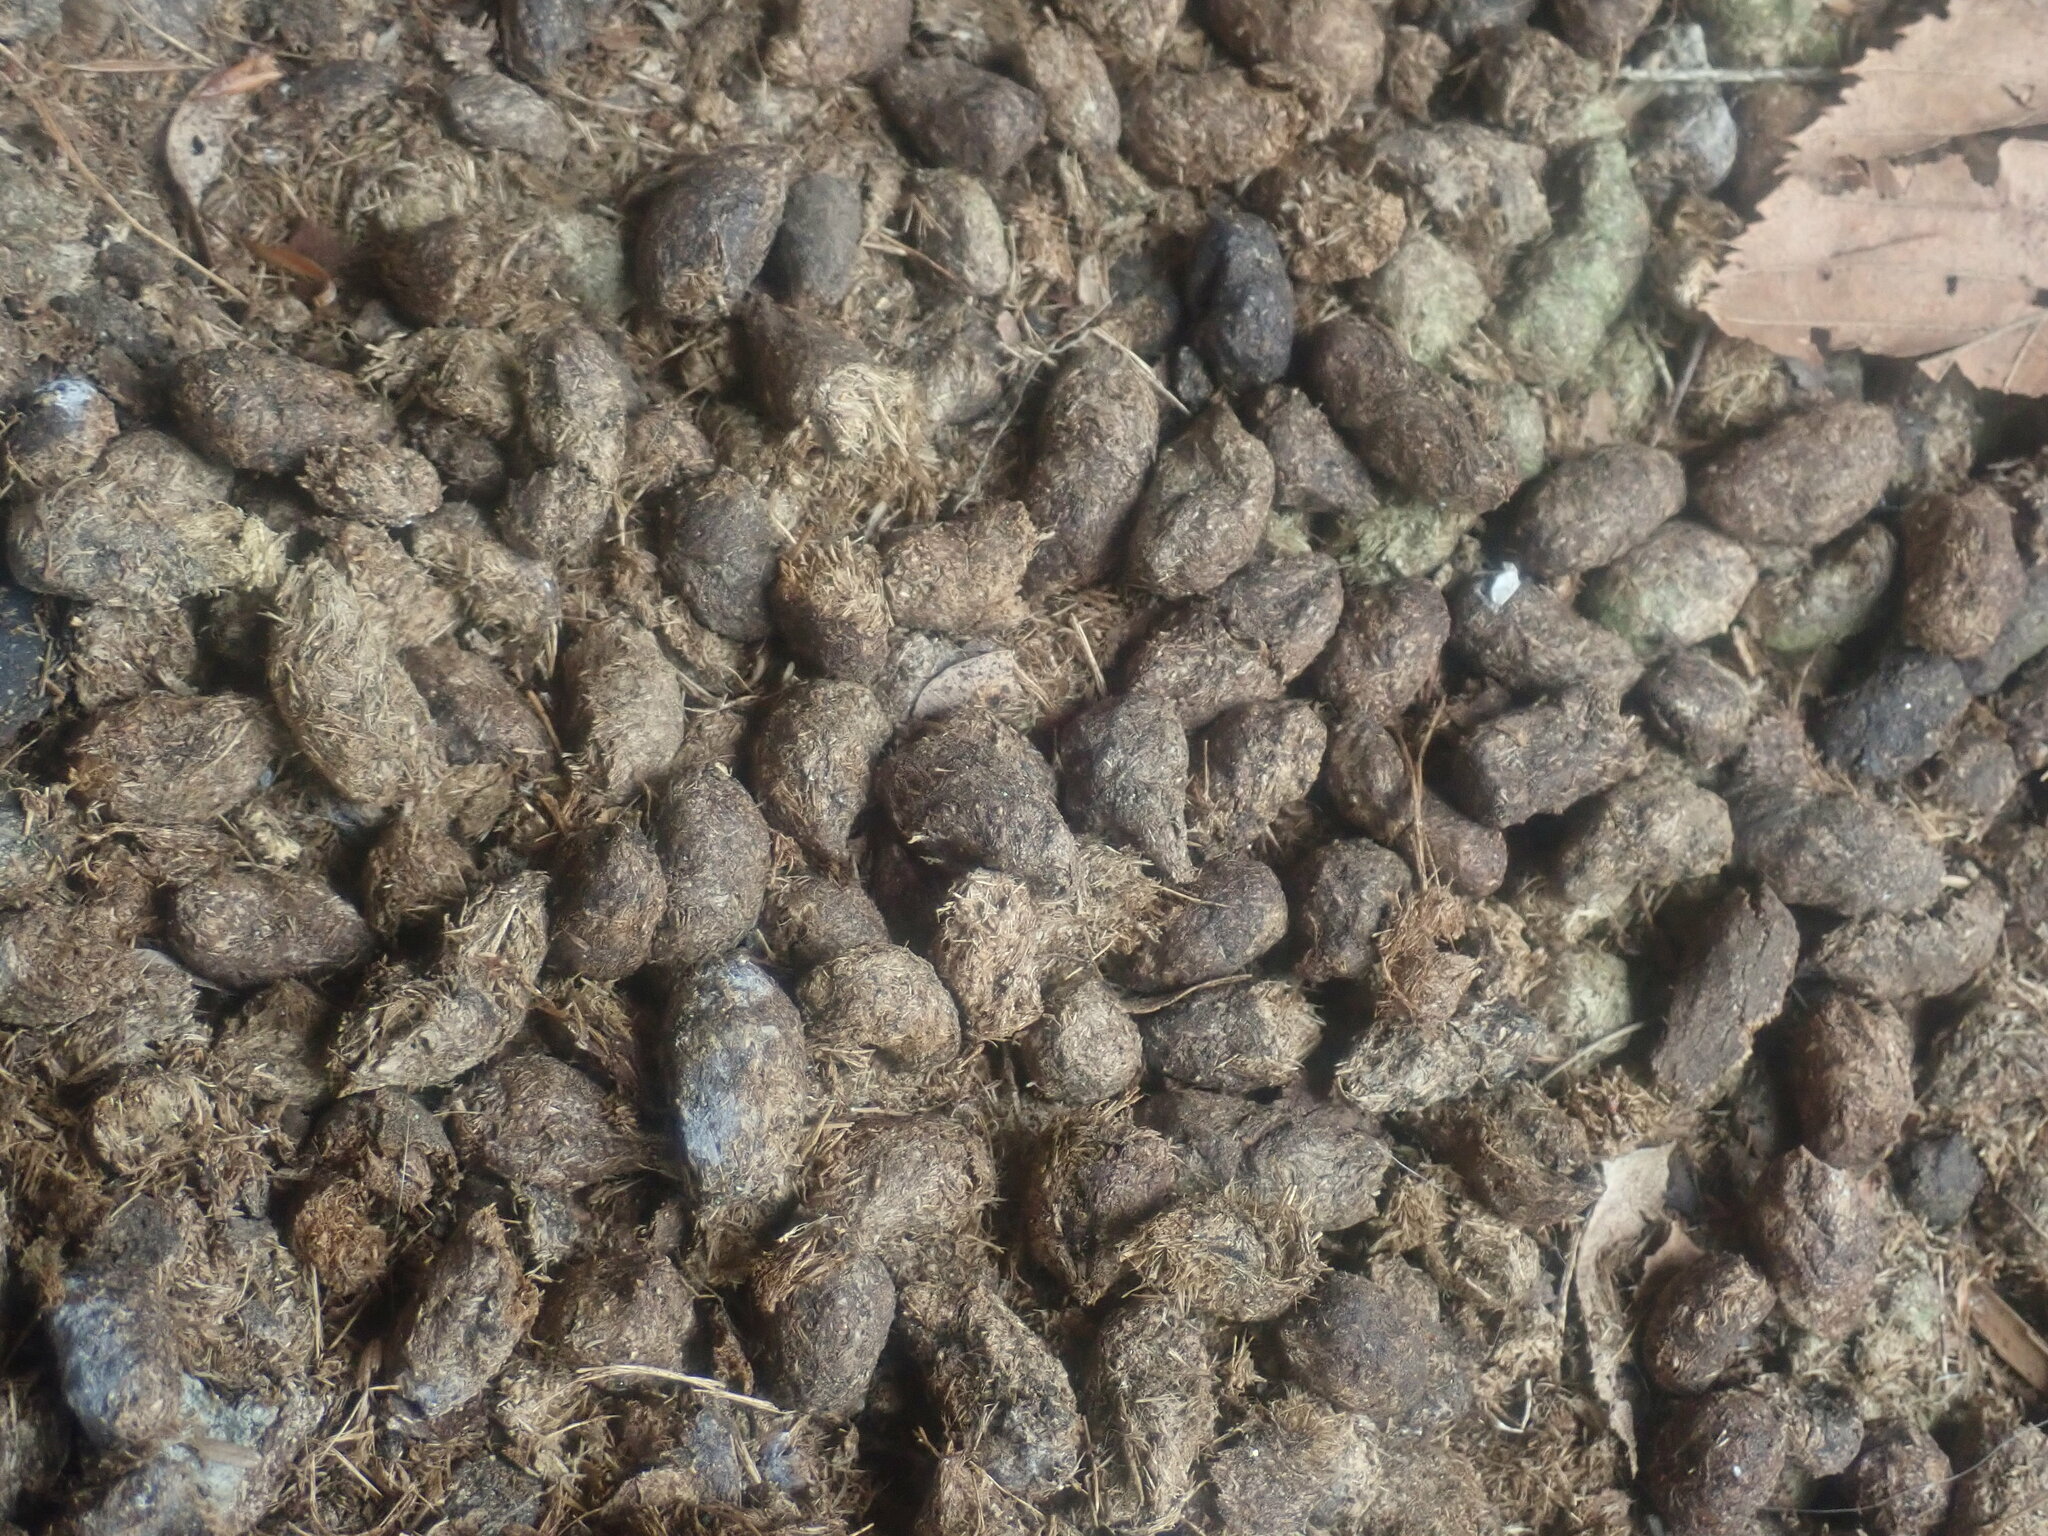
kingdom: Animalia
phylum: Chordata
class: Mammalia
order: Rodentia
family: Erethizontidae
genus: Erethizon
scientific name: Erethizon dorsatus
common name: North american porcupine
